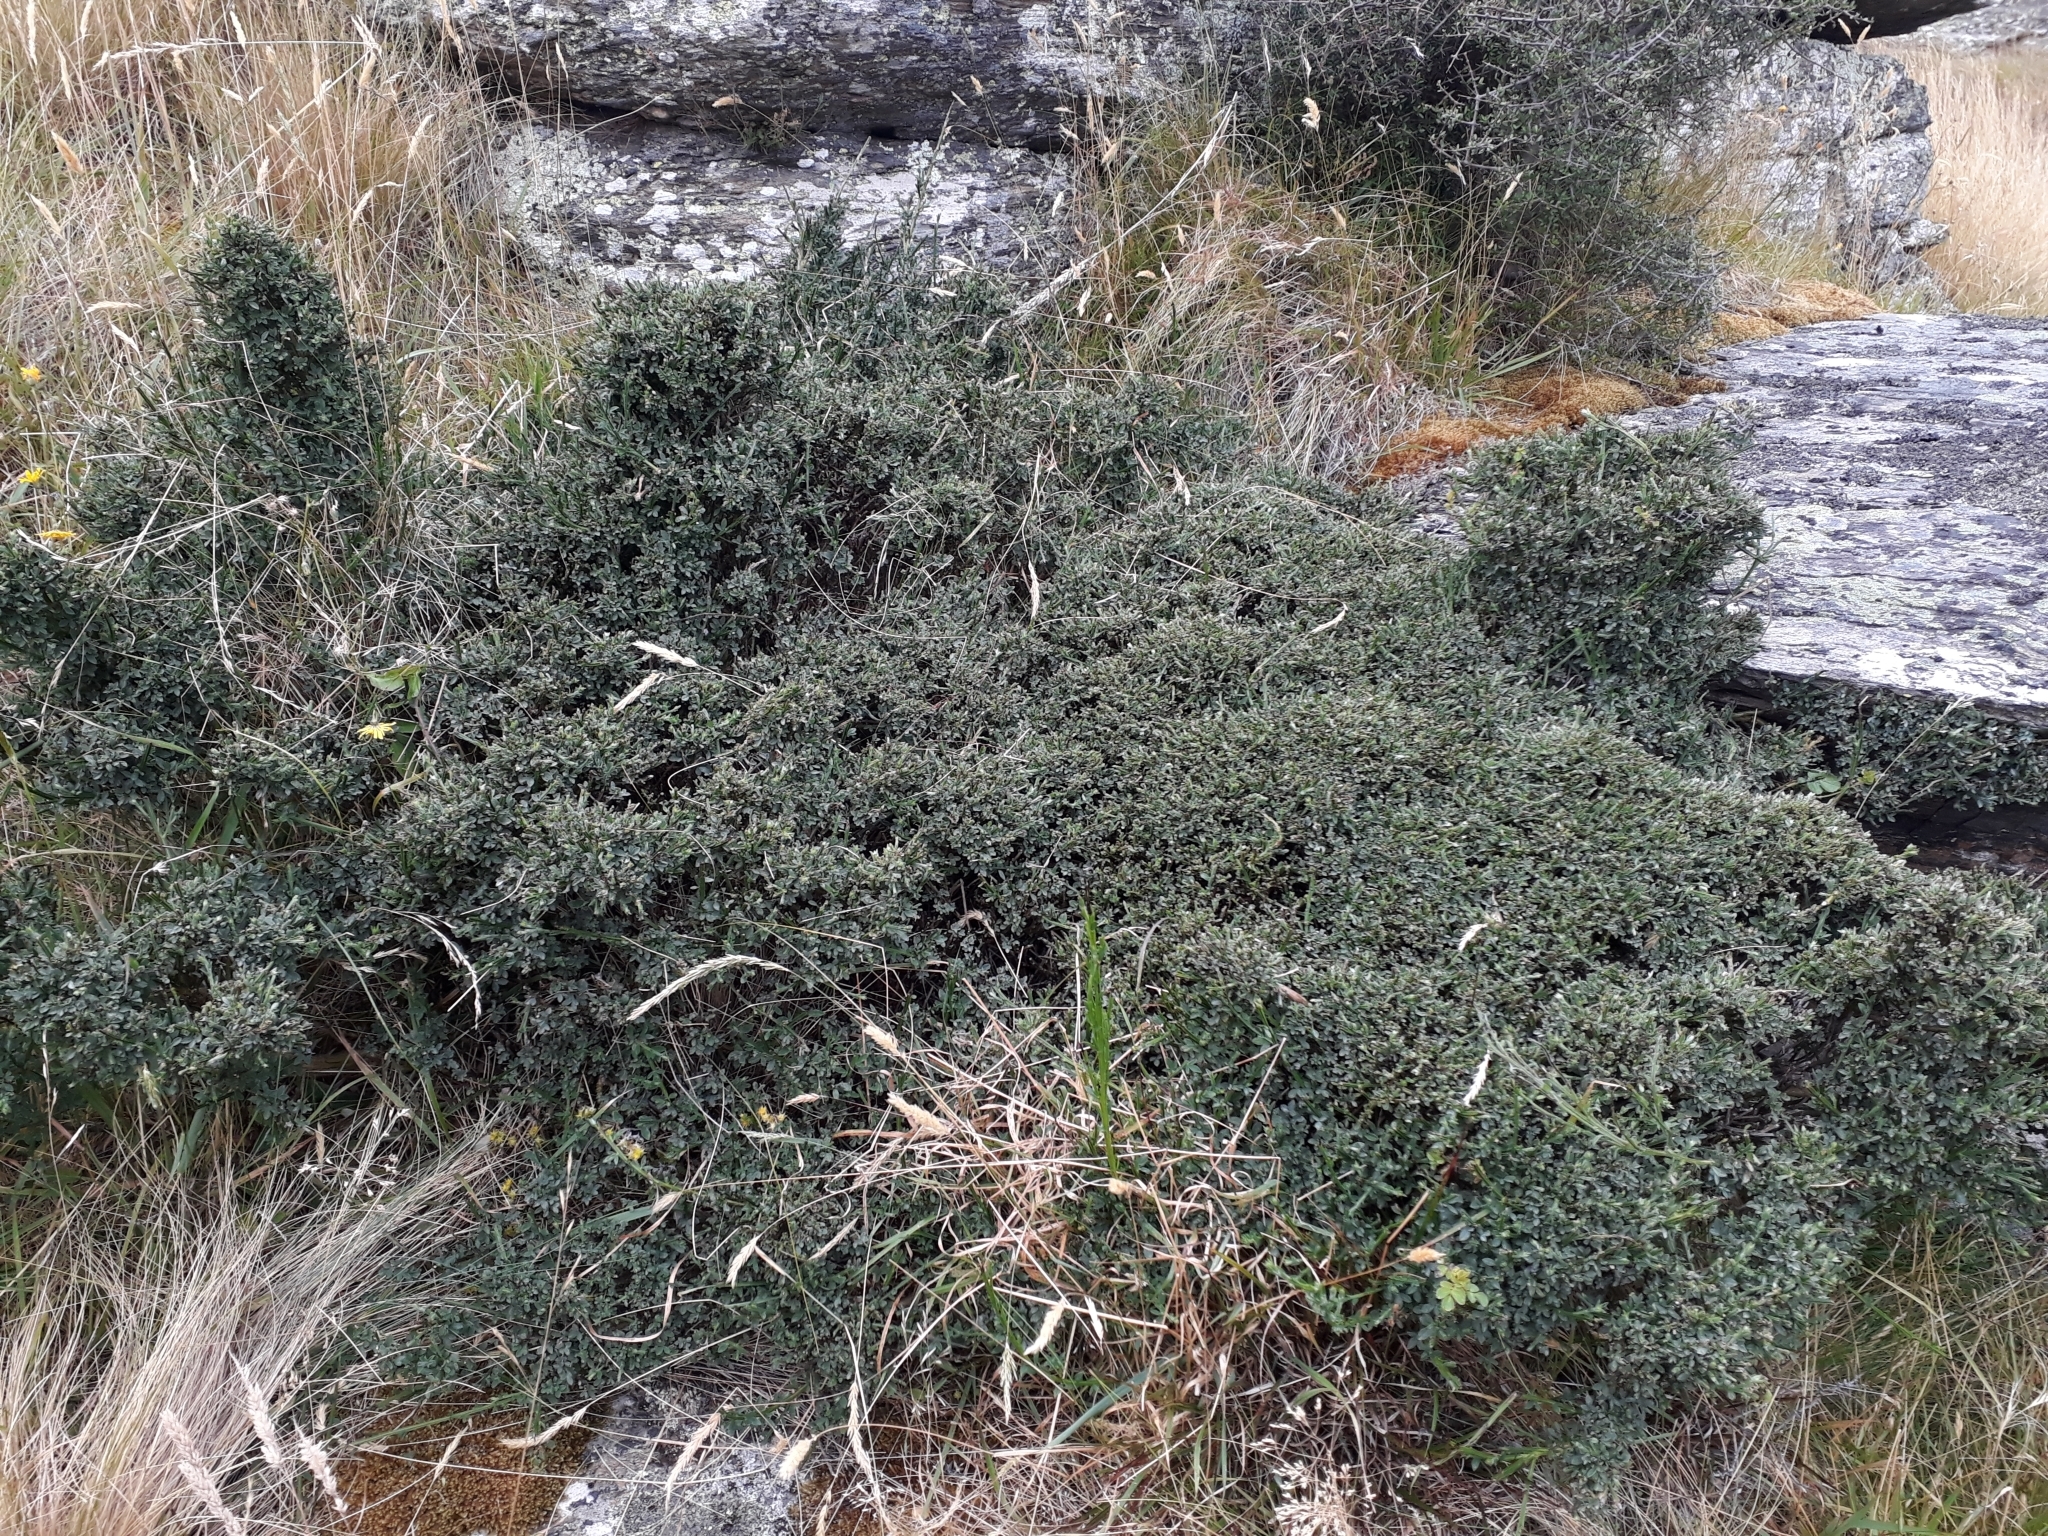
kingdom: Plantae
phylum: Tracheophyta
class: Magnoliopsida
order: Fabales
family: Fabaceae
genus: Cytisus
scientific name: Cytisus scoparius
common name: Scotch broom
